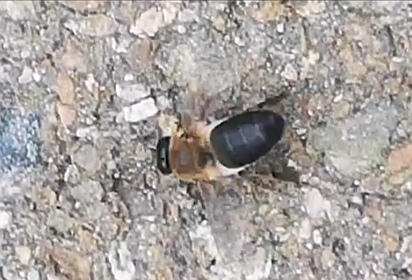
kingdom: Animalia
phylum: Arthropoda
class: Insecta
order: Hymenoptera
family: Apidae
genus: Apis
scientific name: Apis mellifera
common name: Honey bee
